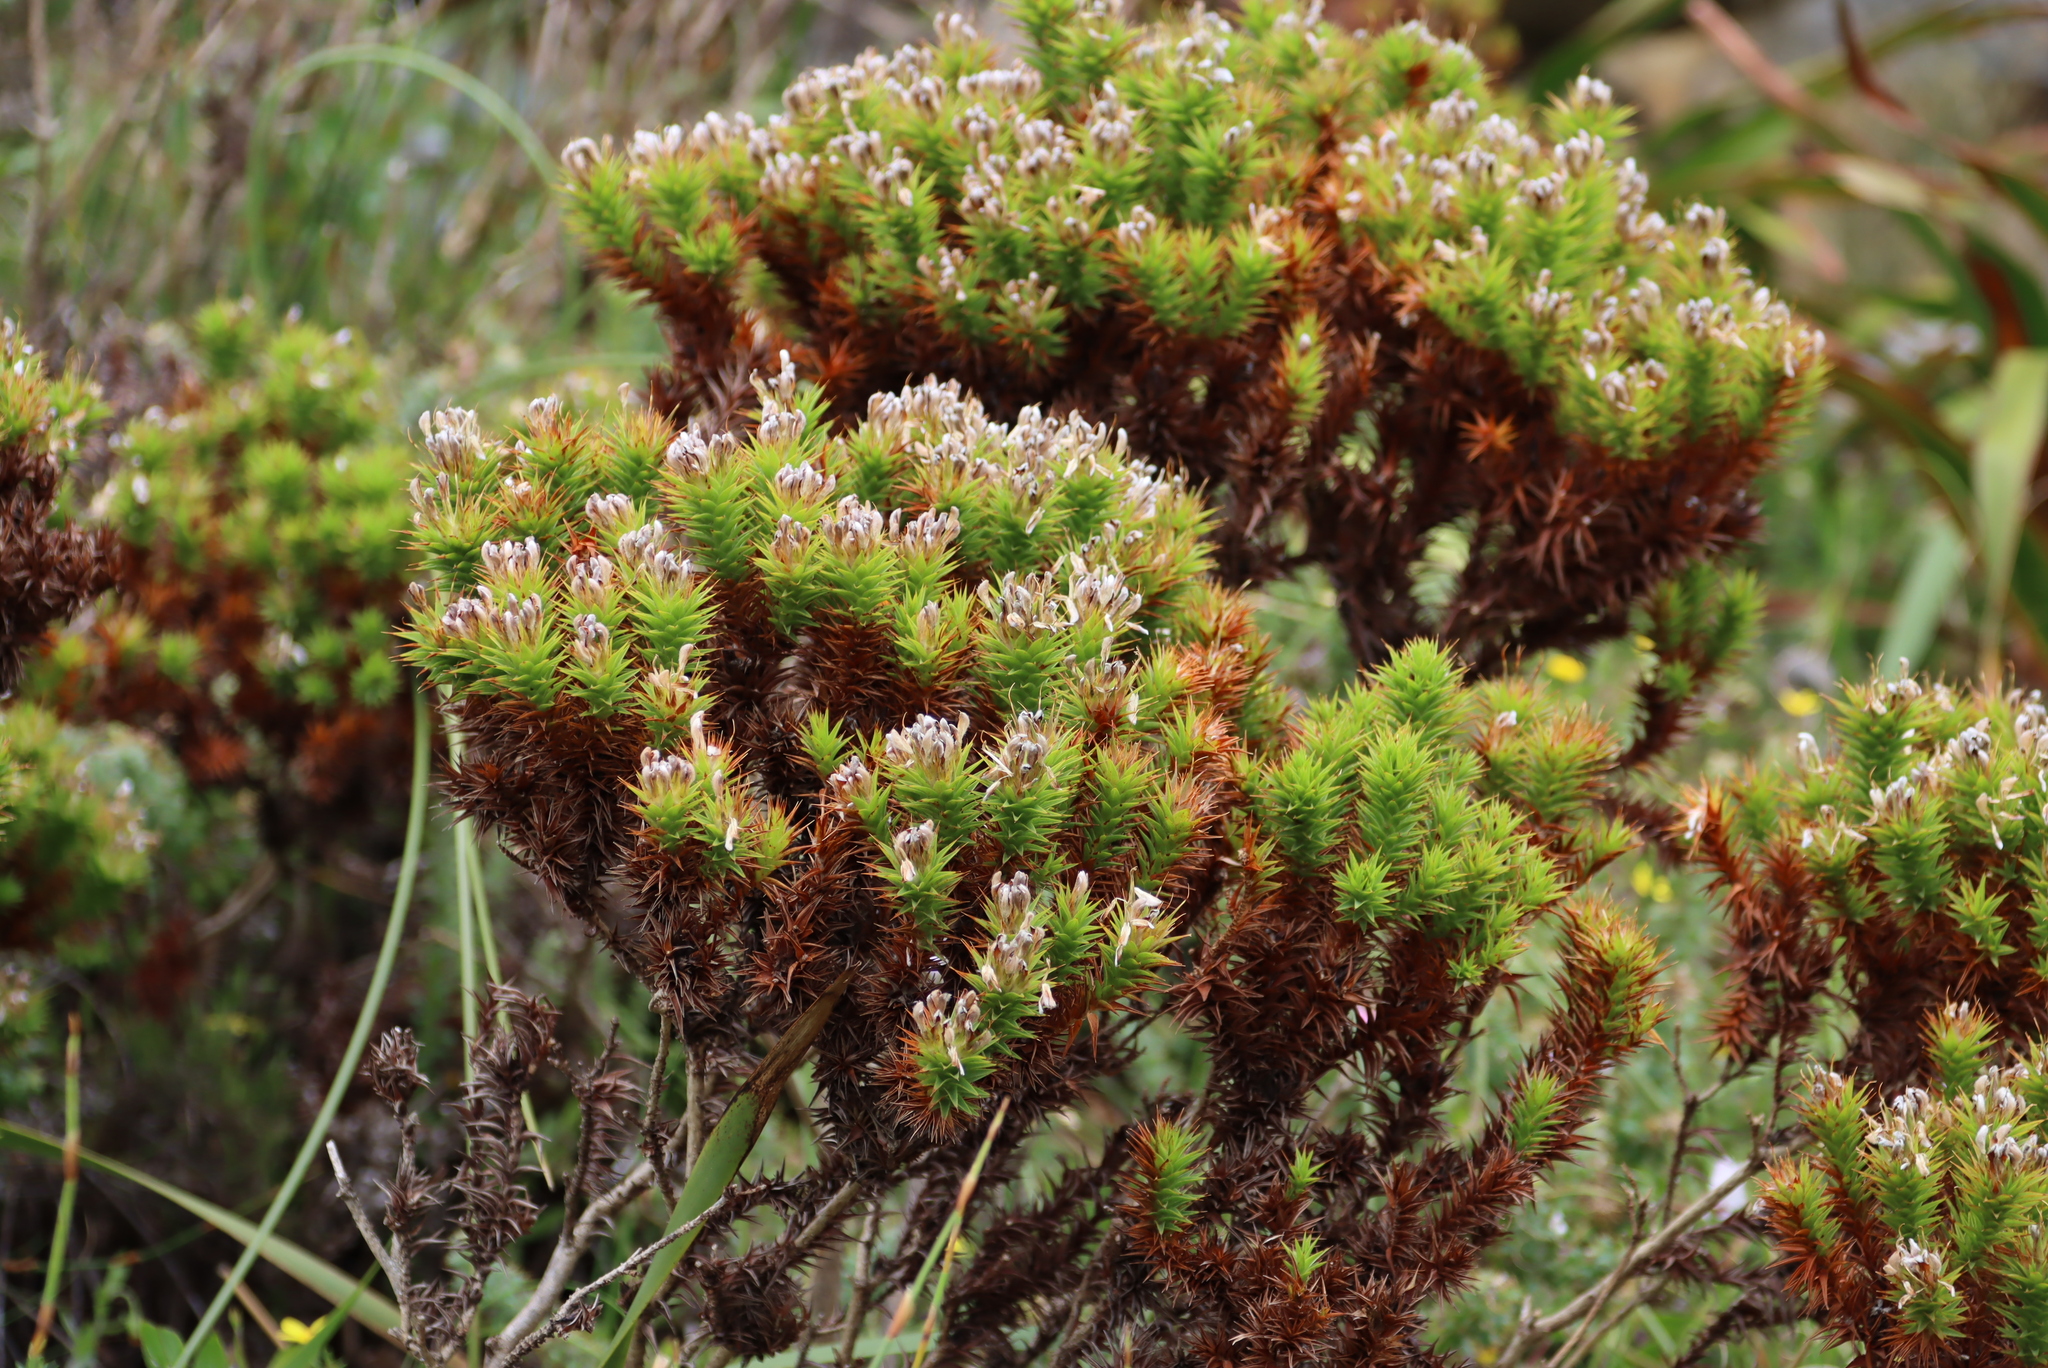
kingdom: Plantae
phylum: Tracheophyta
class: Magnoliopsida
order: Fabales
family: Fabaceae
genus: Aspalathus
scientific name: Aspalathus barbata
